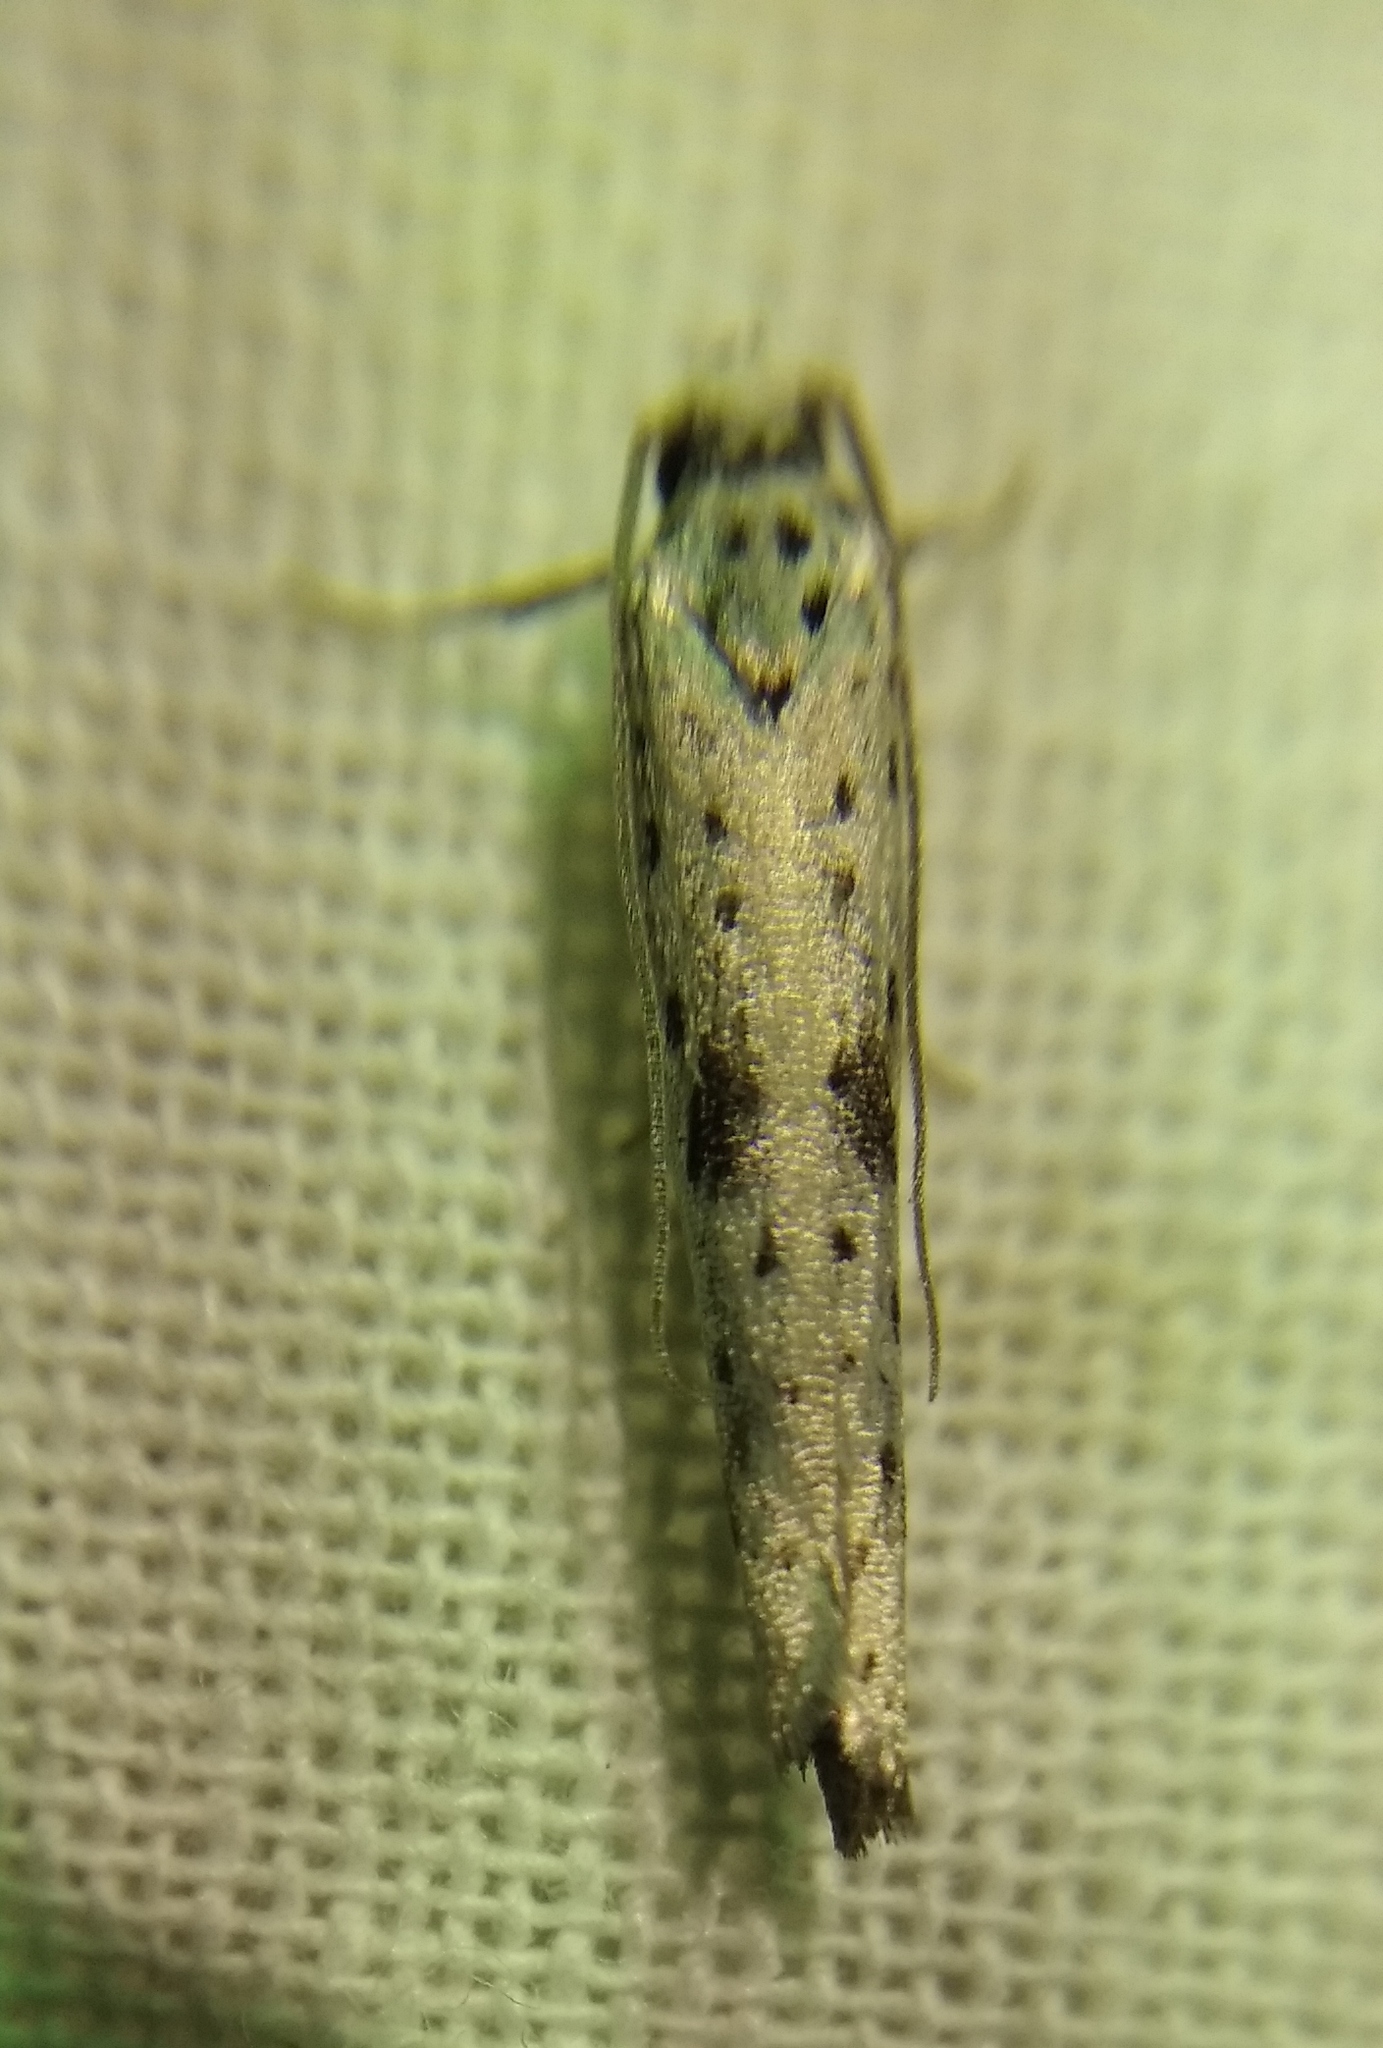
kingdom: Animalia
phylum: Arthropoda
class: Insecta
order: Lepidoptera
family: Yponomeutidae
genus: Yponomeuta
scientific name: Yponomeuta plumbella
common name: Black-tipped ermine
